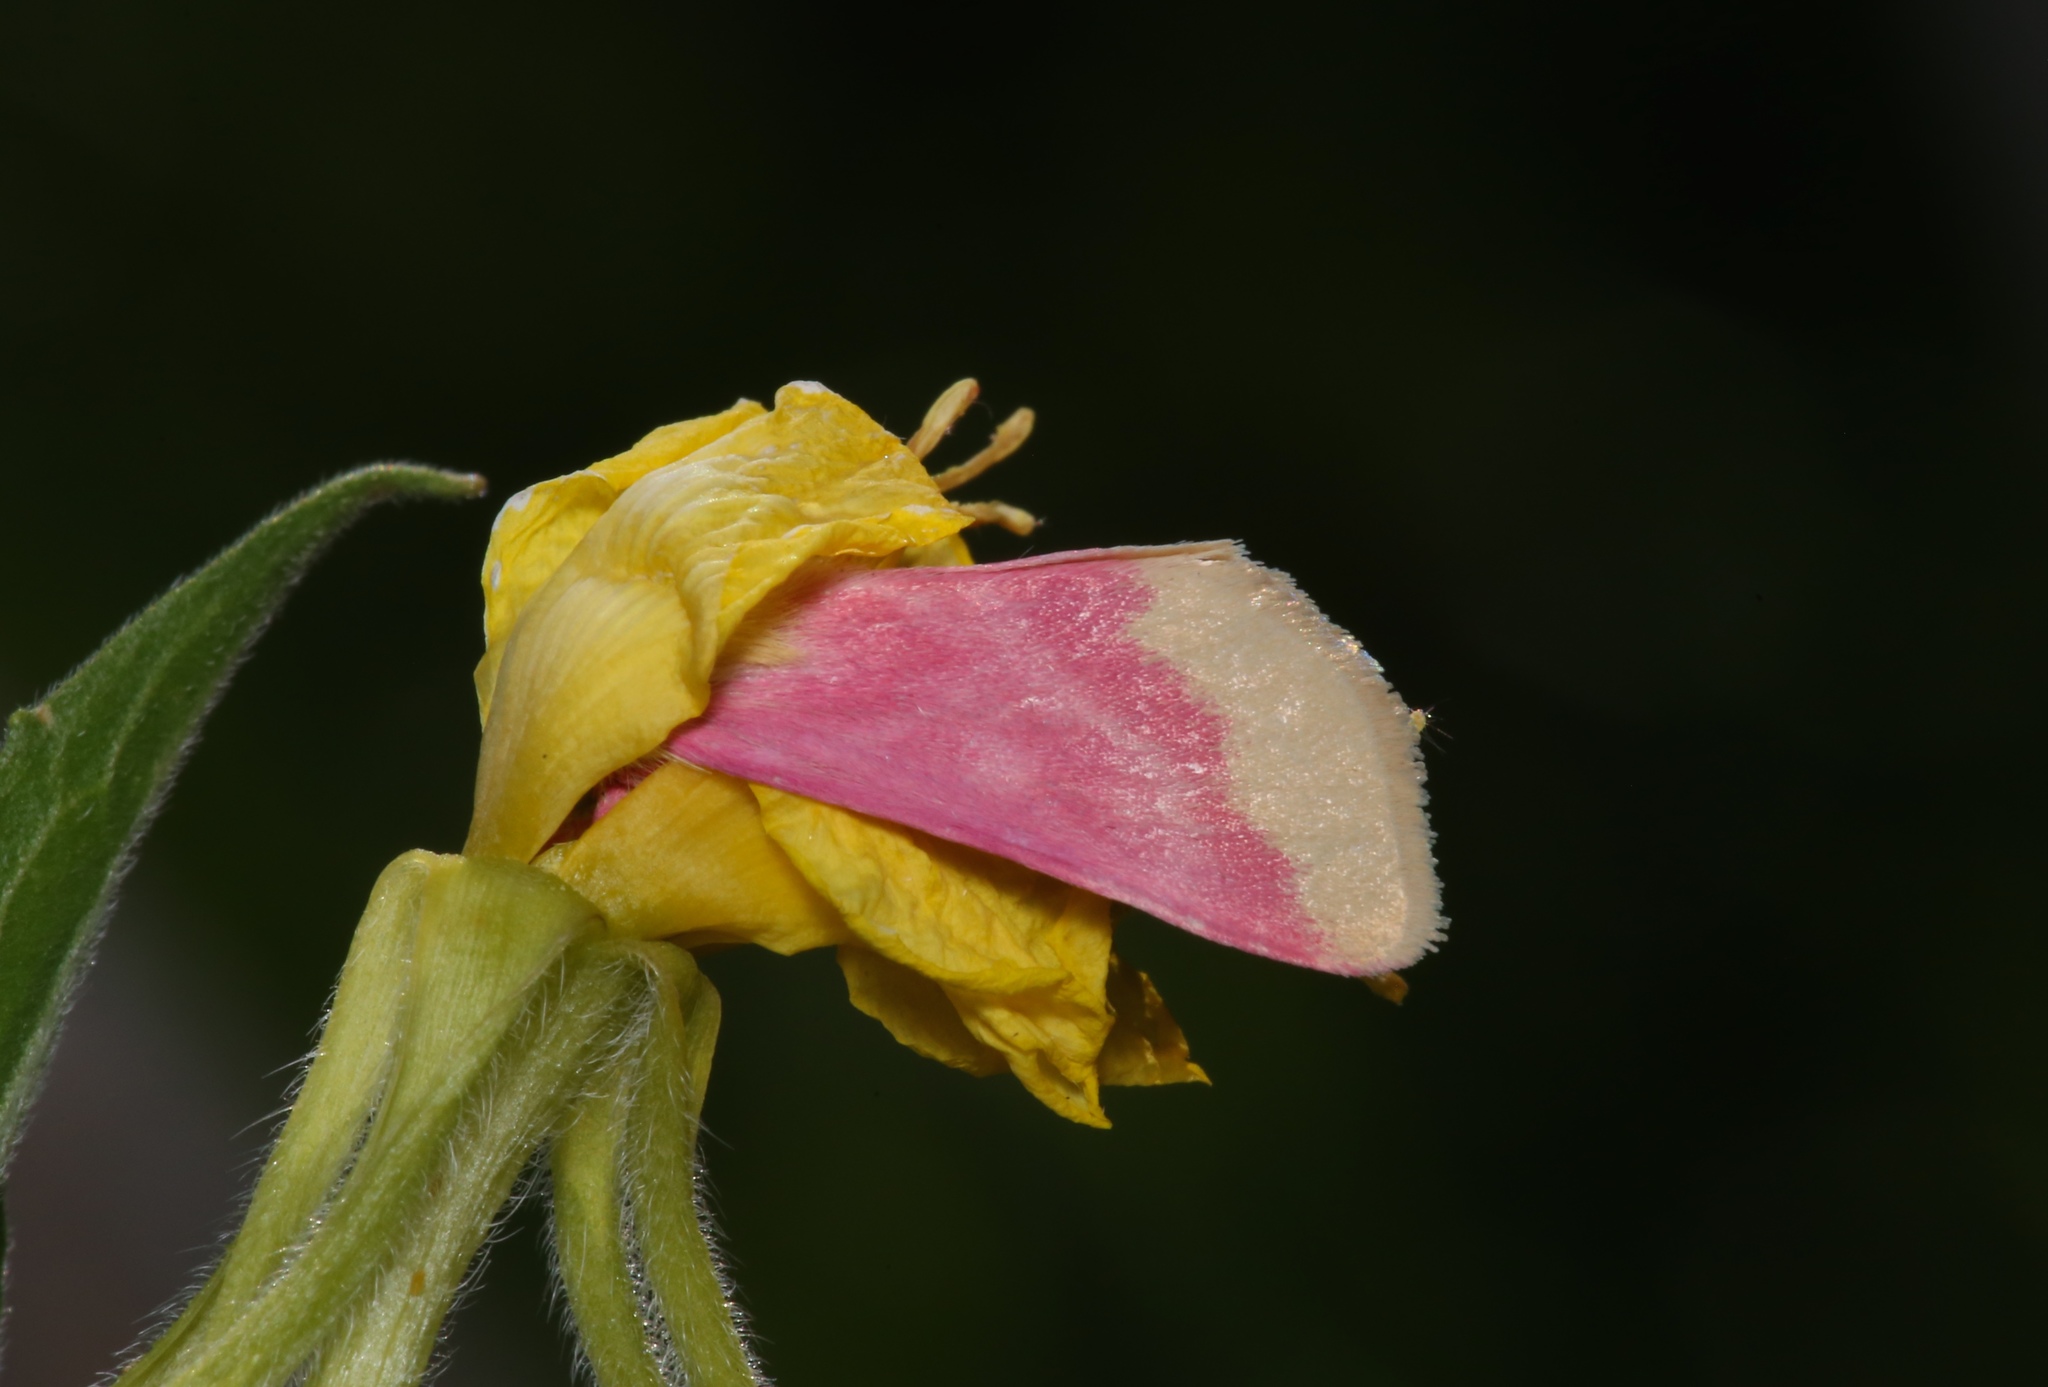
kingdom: Animalia
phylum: Arthropoda
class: Insecta
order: Lepidoptera
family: Noctuidae
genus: Schinia
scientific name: Schinia florida
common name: Primrose moth
